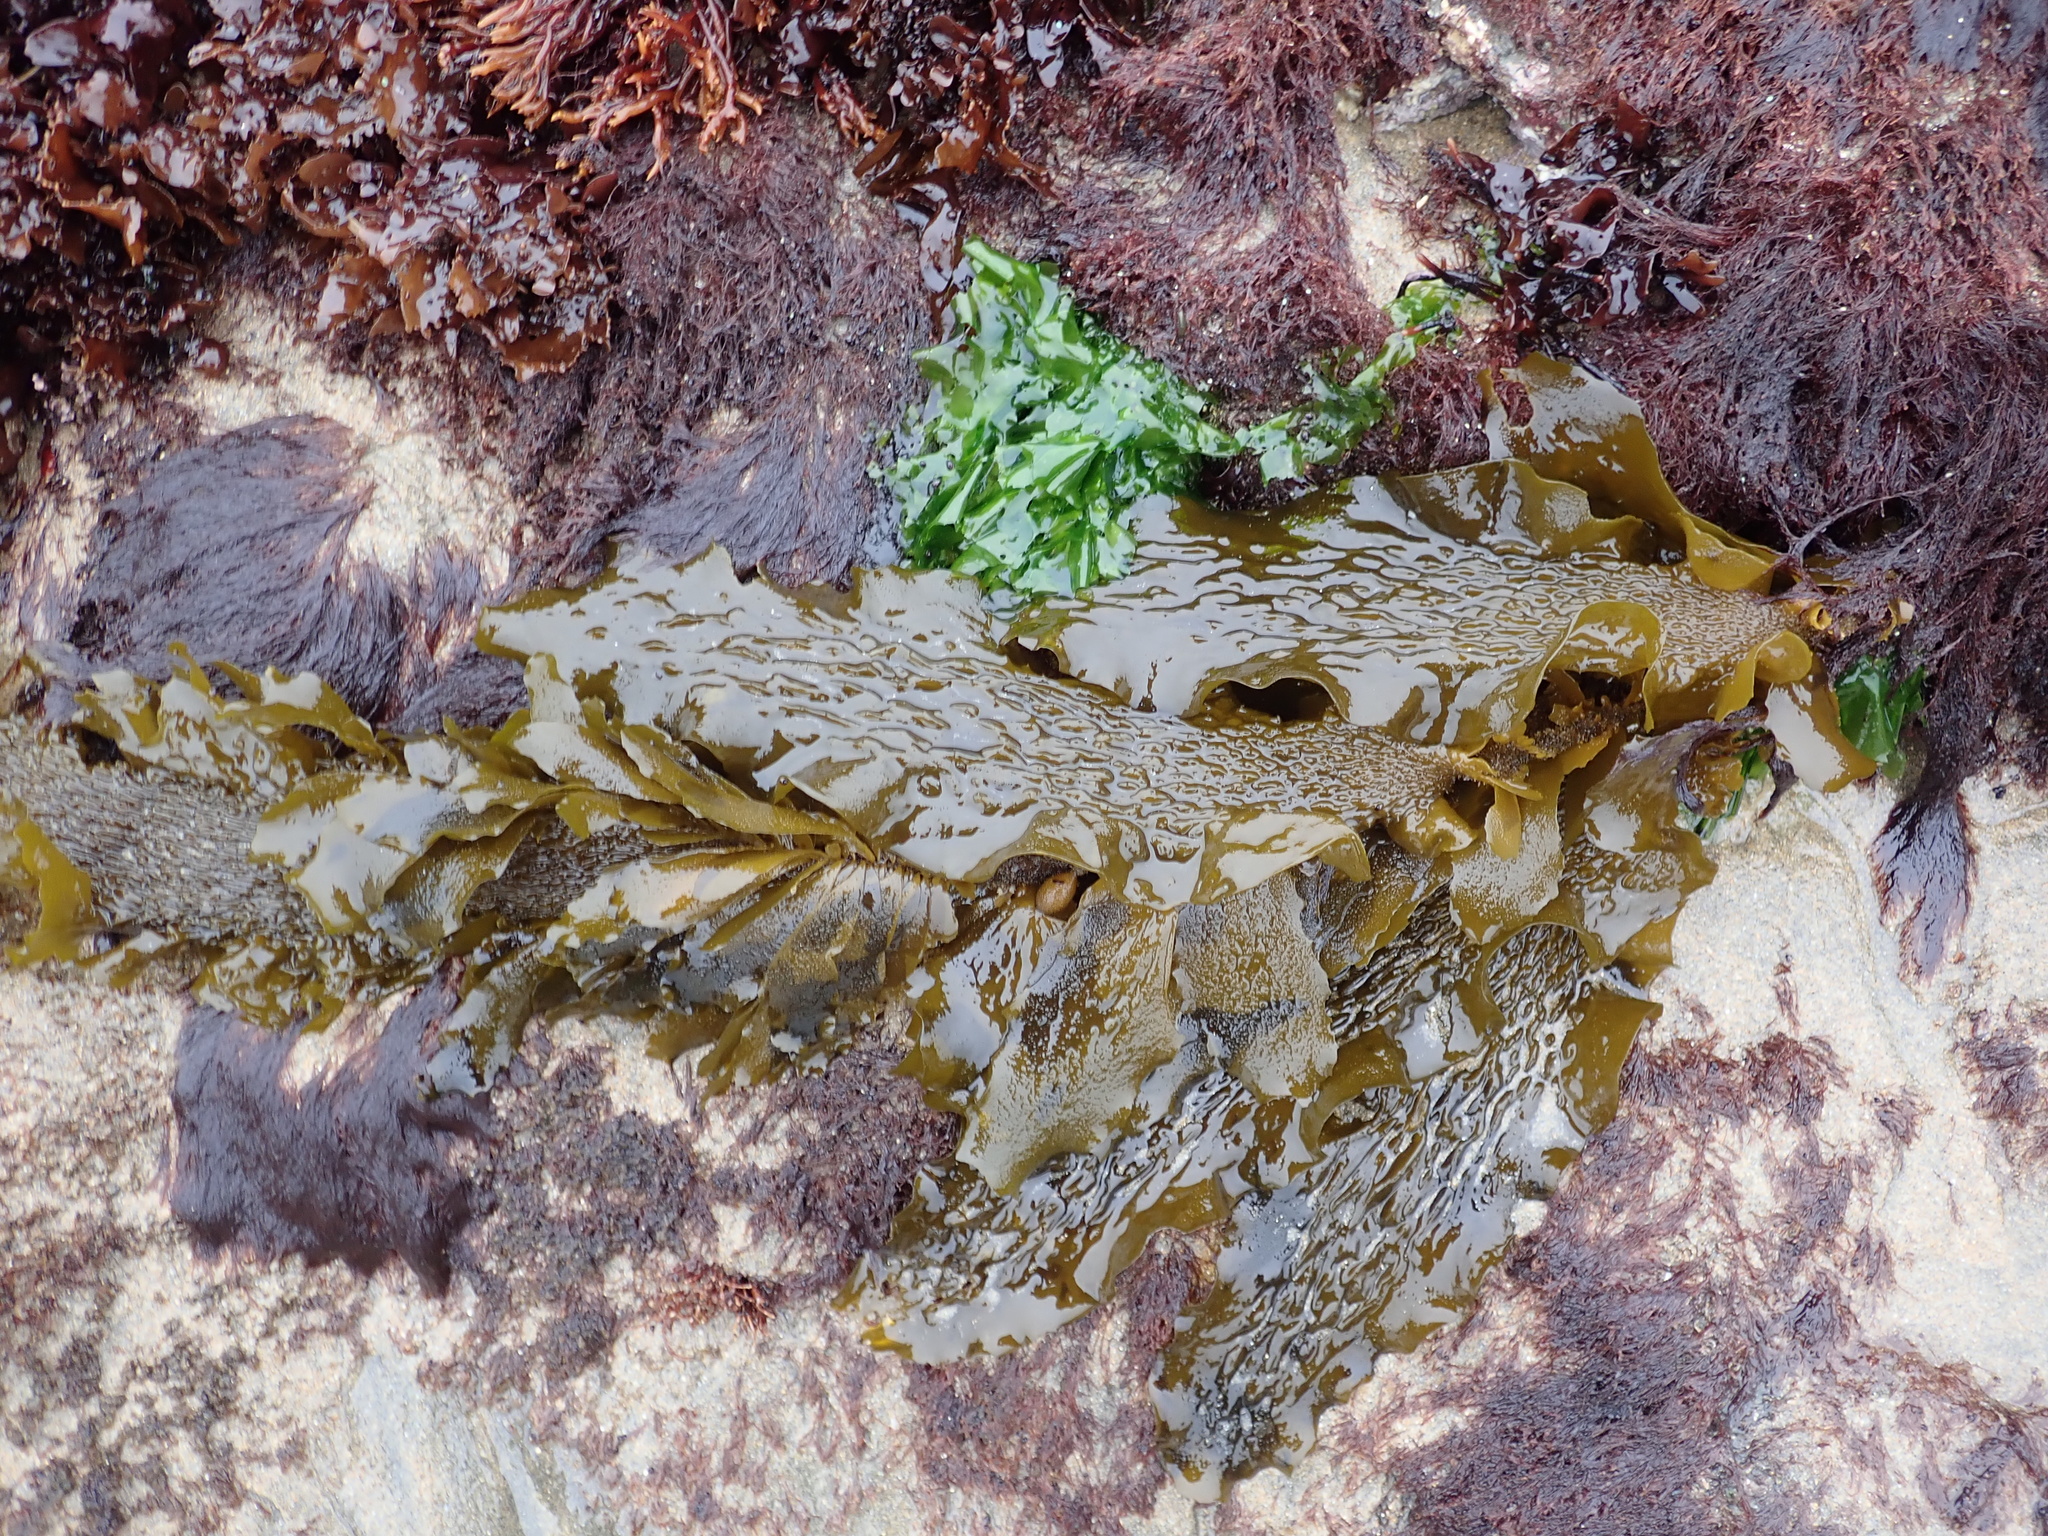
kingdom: Chromista
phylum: Ochrophyta
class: Phaeophyceae
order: Laminariales
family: Lessoniaceae
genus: Egregia
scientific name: Egregia menziesii
